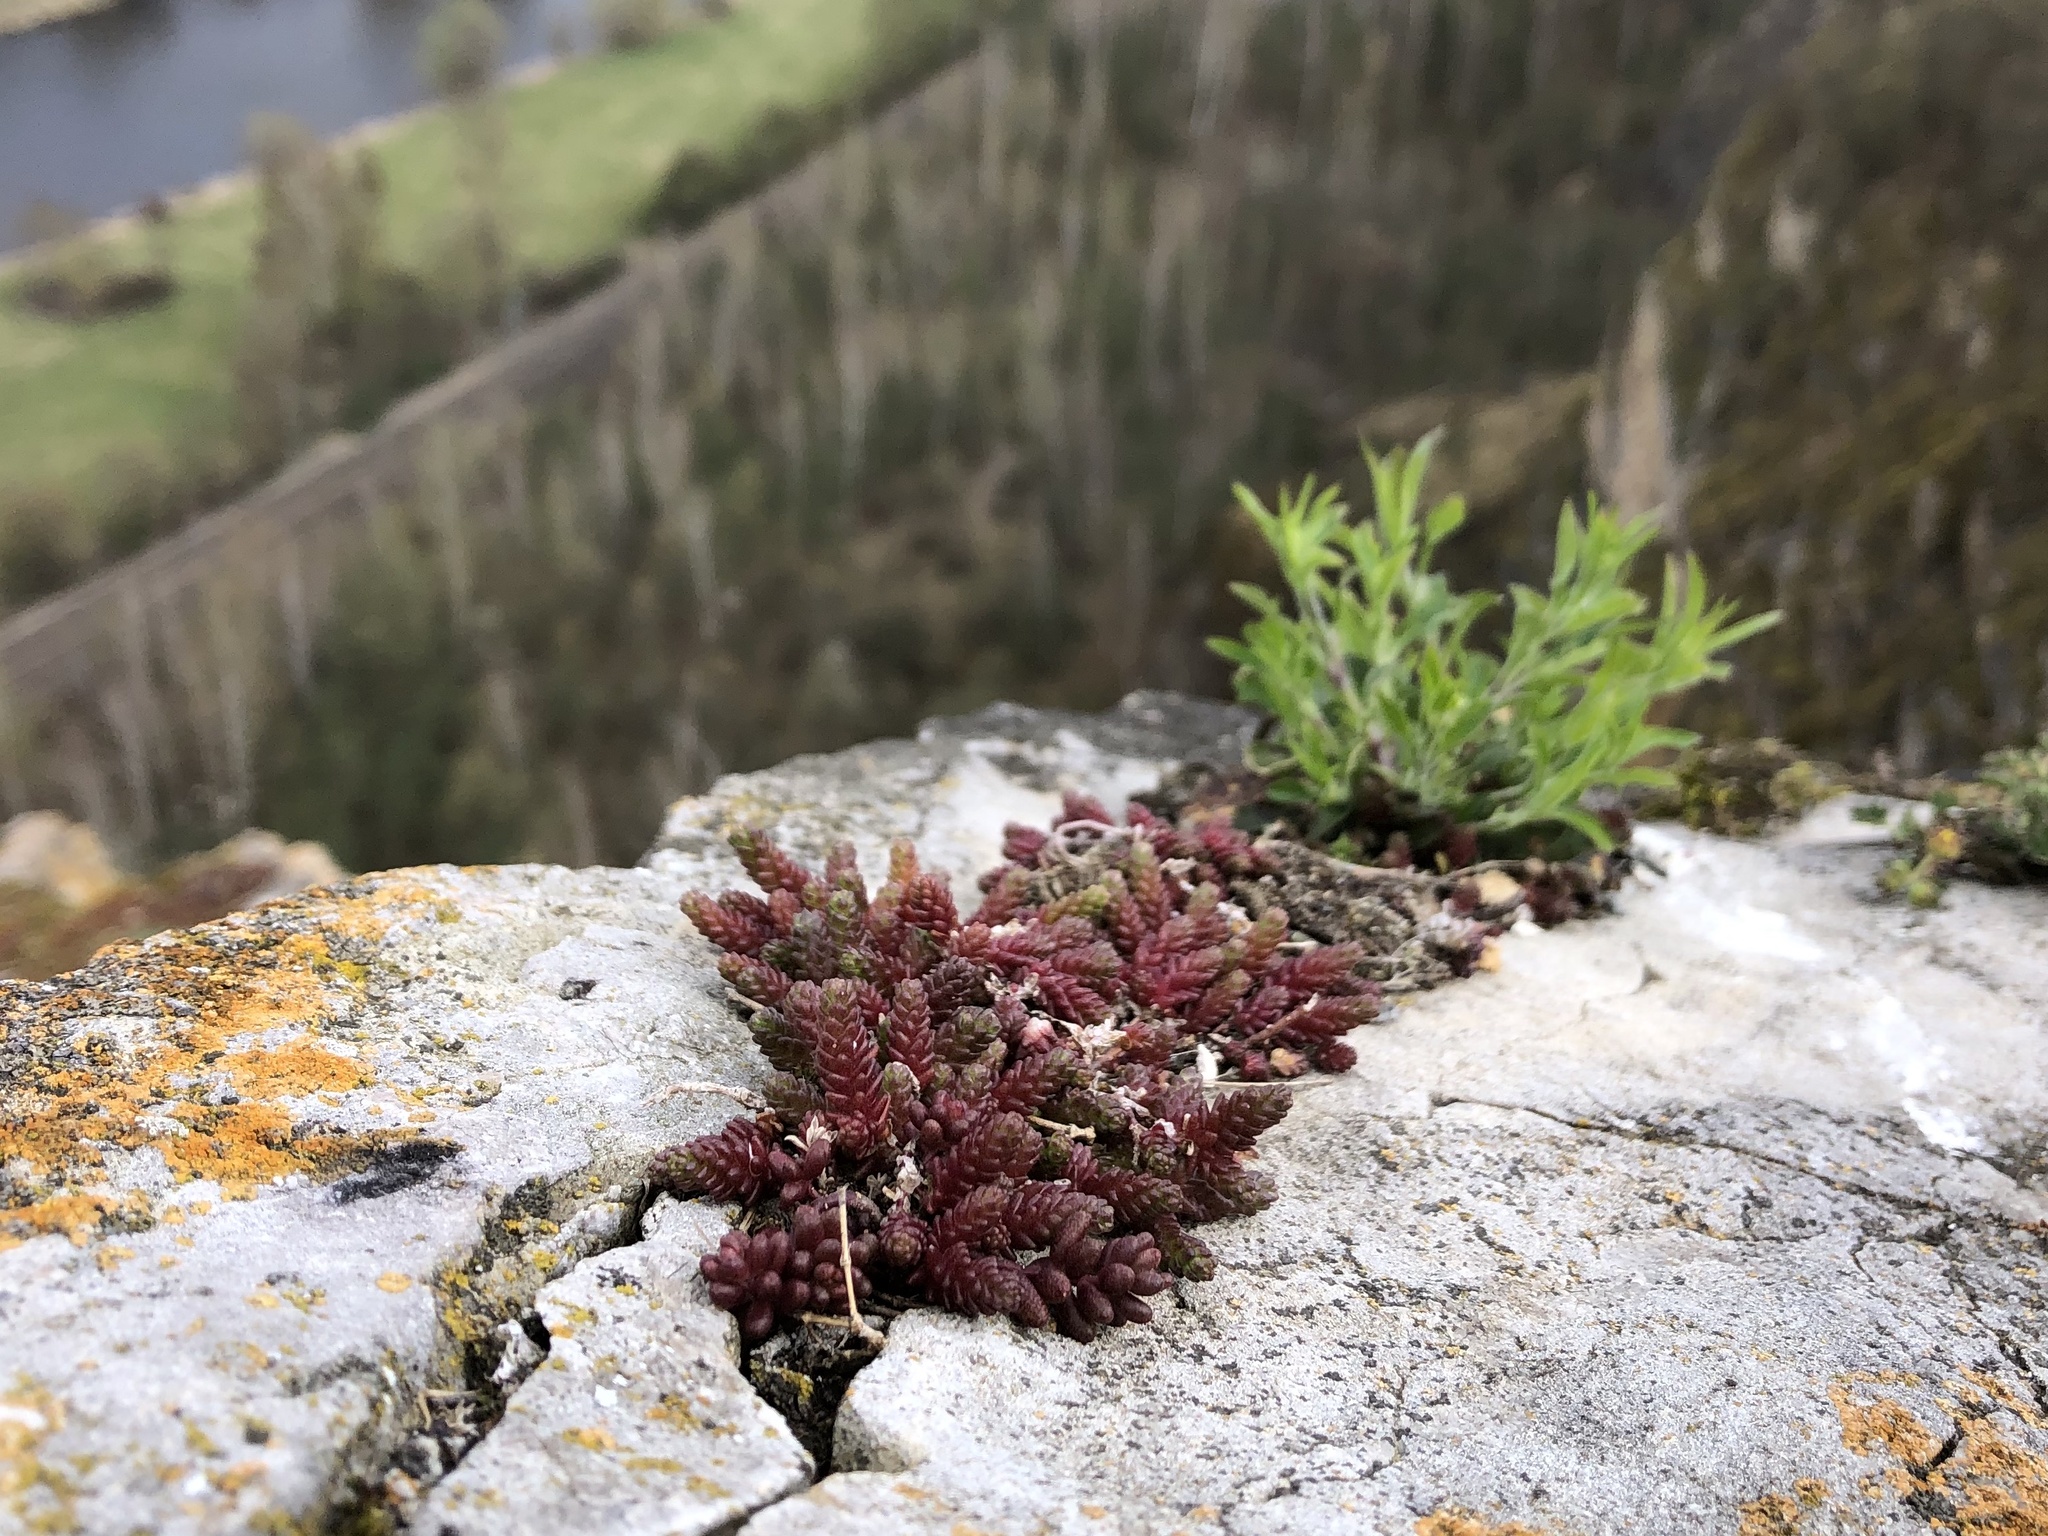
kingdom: Plantae
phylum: Tracheophyta
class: Magnoliopsida
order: Saxifragales
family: Crassulaceae
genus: Sedum
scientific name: Sedum acre
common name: Biting stonecrop
